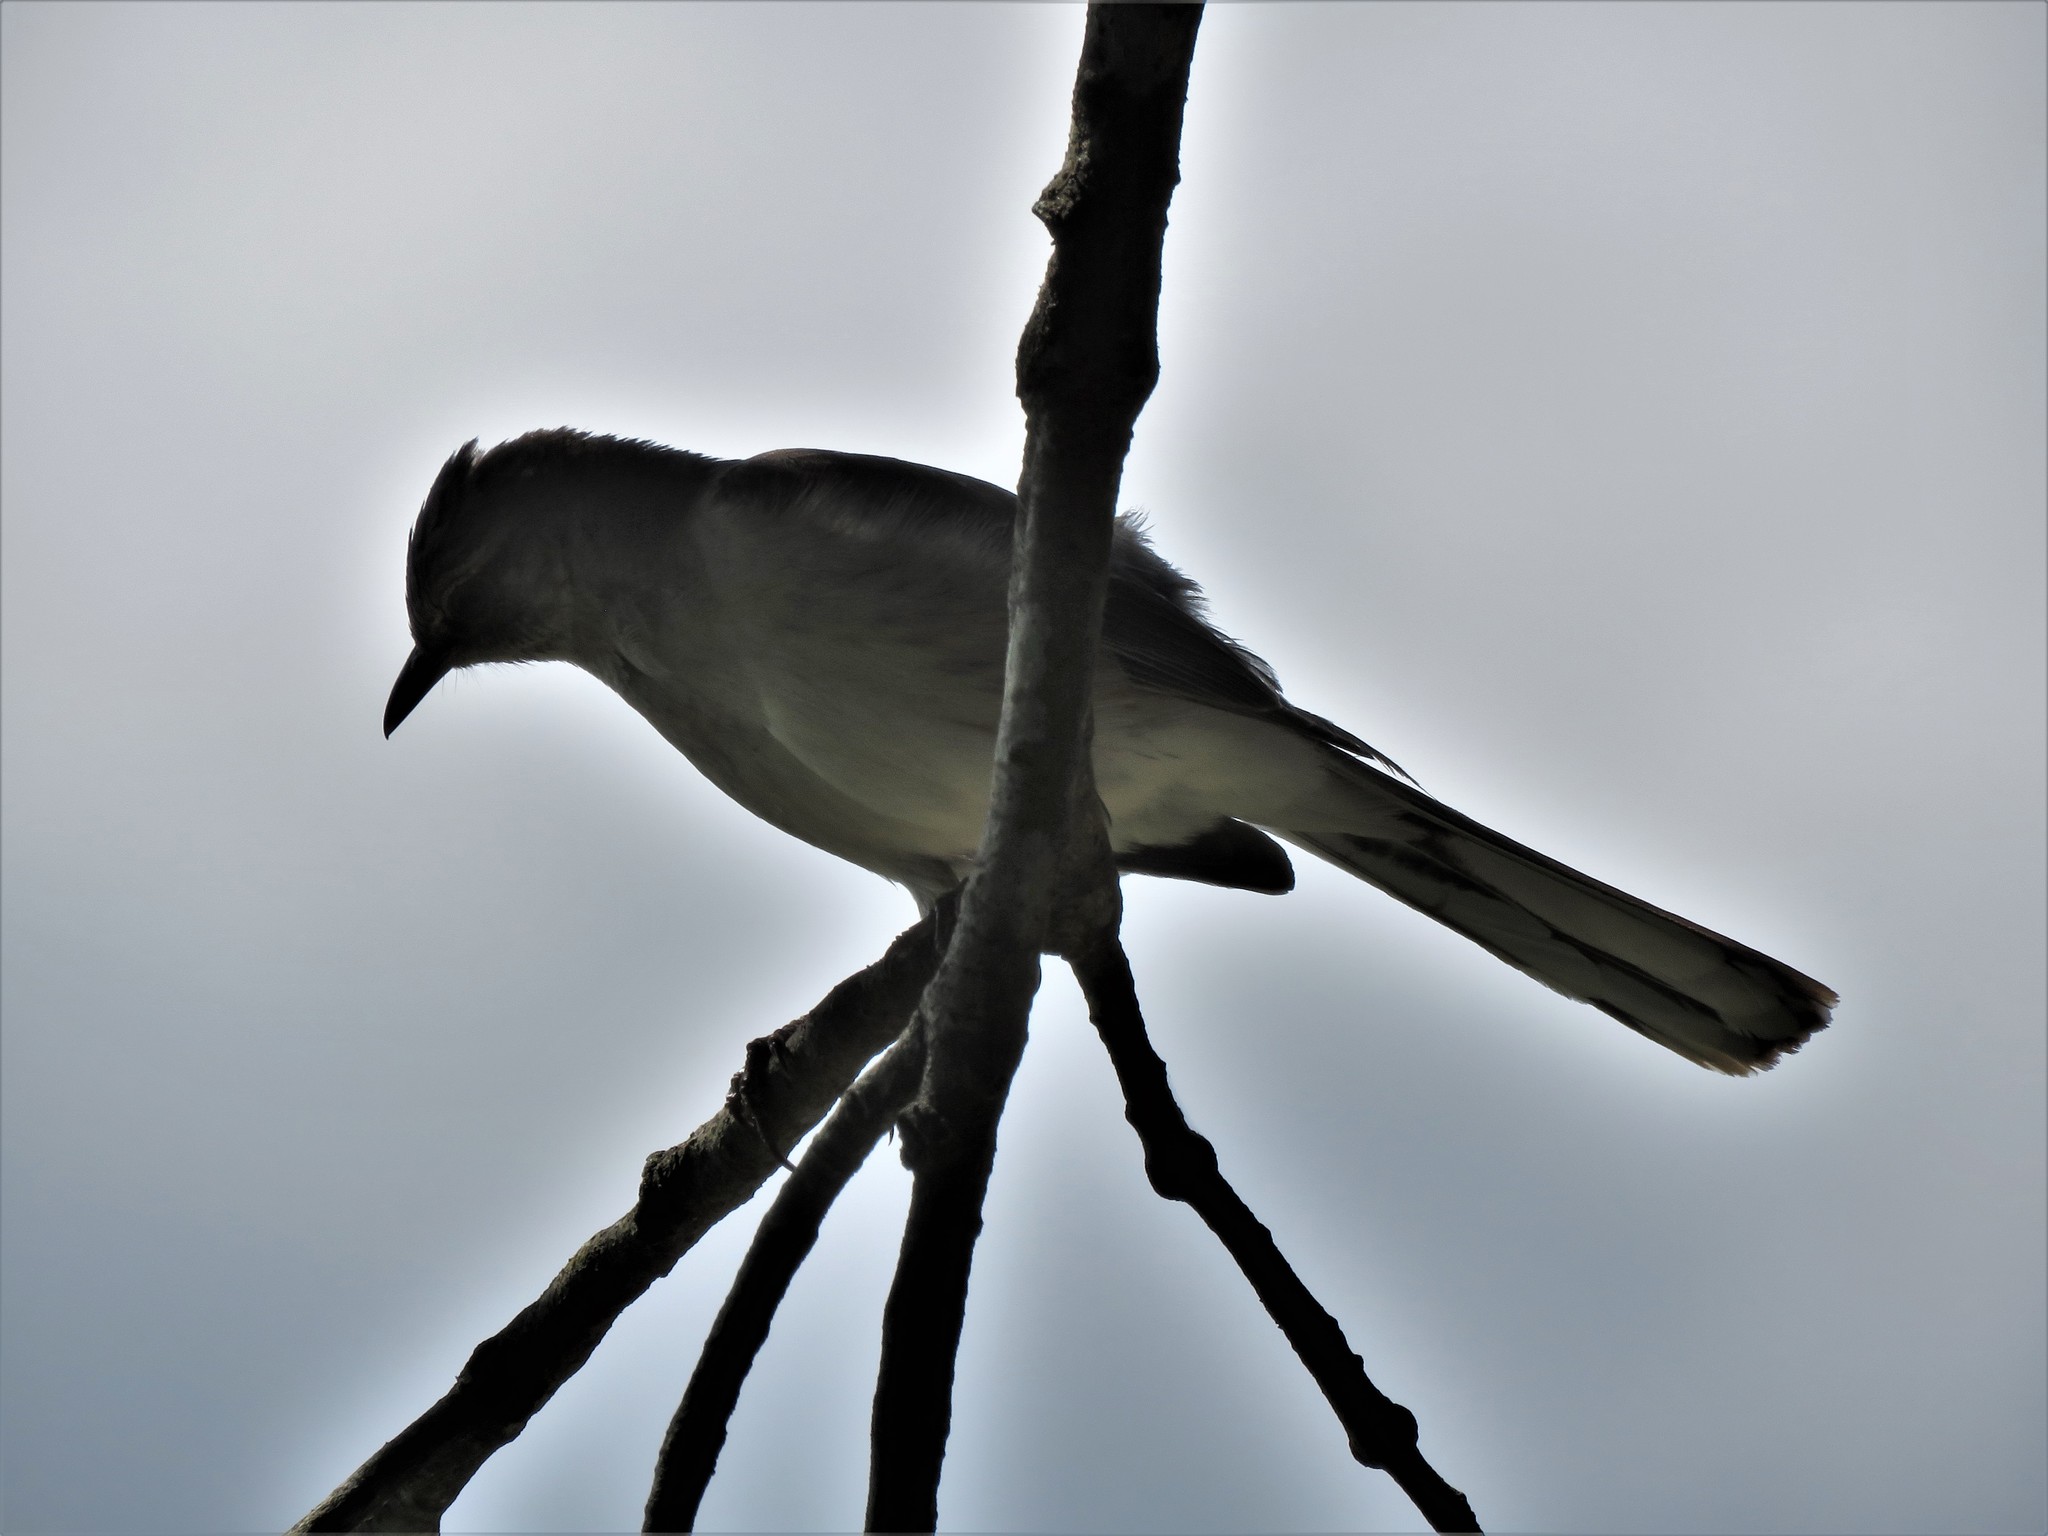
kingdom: Animalia
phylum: Chordata
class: Aves
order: Passeriformes
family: Mimidae
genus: Mimus
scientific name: Mimus polyglottos
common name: Northern mockingbird
